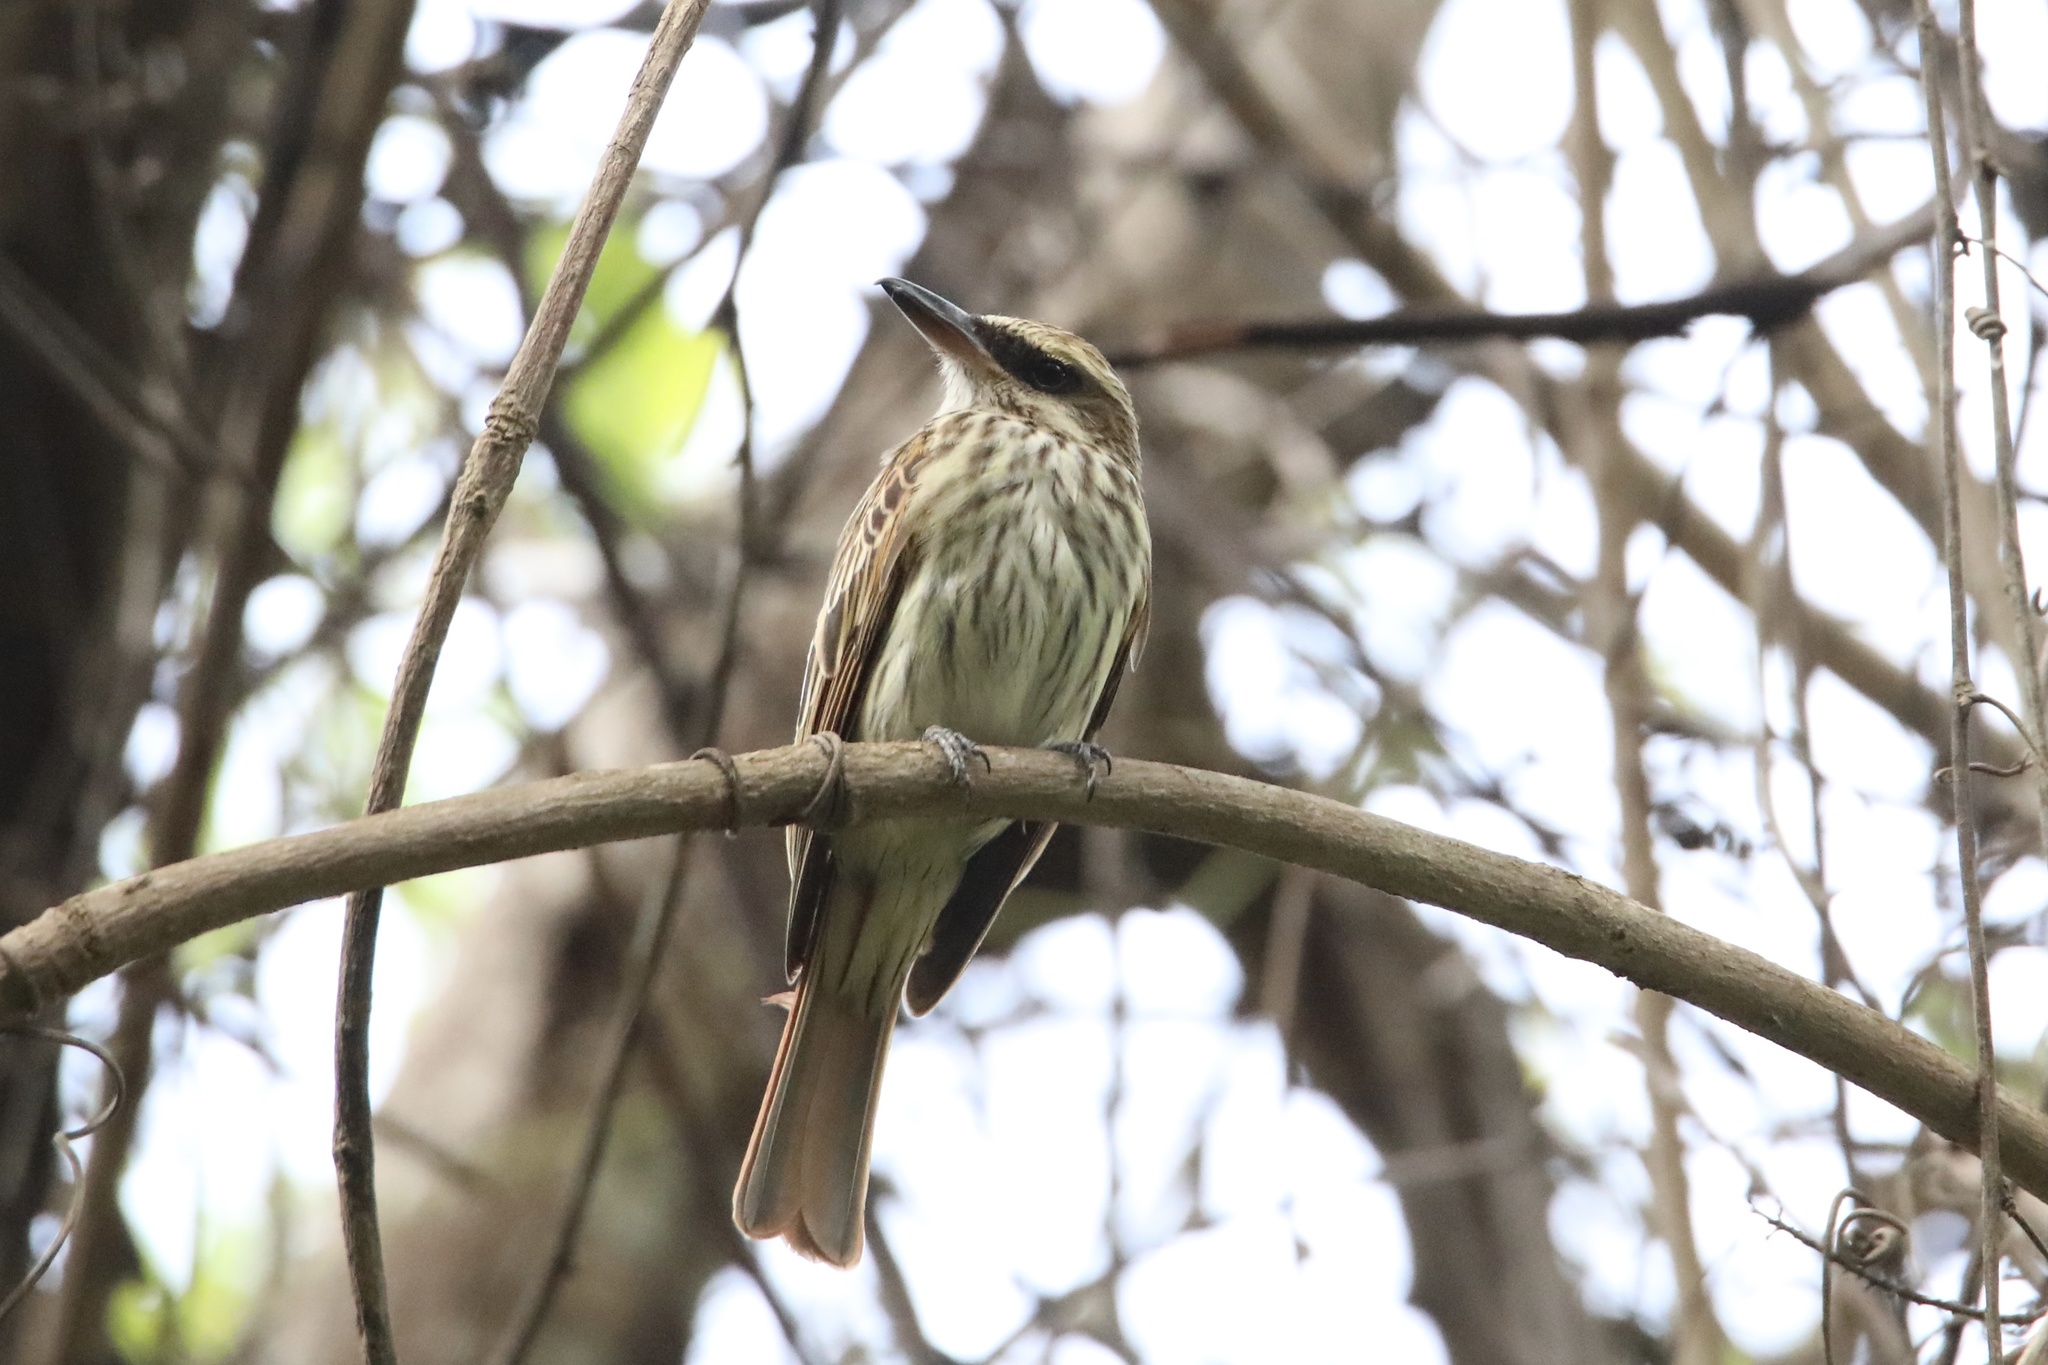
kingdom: Animalia
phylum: Chordata
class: Aves
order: Passeriformes
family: Tyrannidae
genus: Myiodynastes
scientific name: Myiodynastes maculatus
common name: Streaked flycatcher
